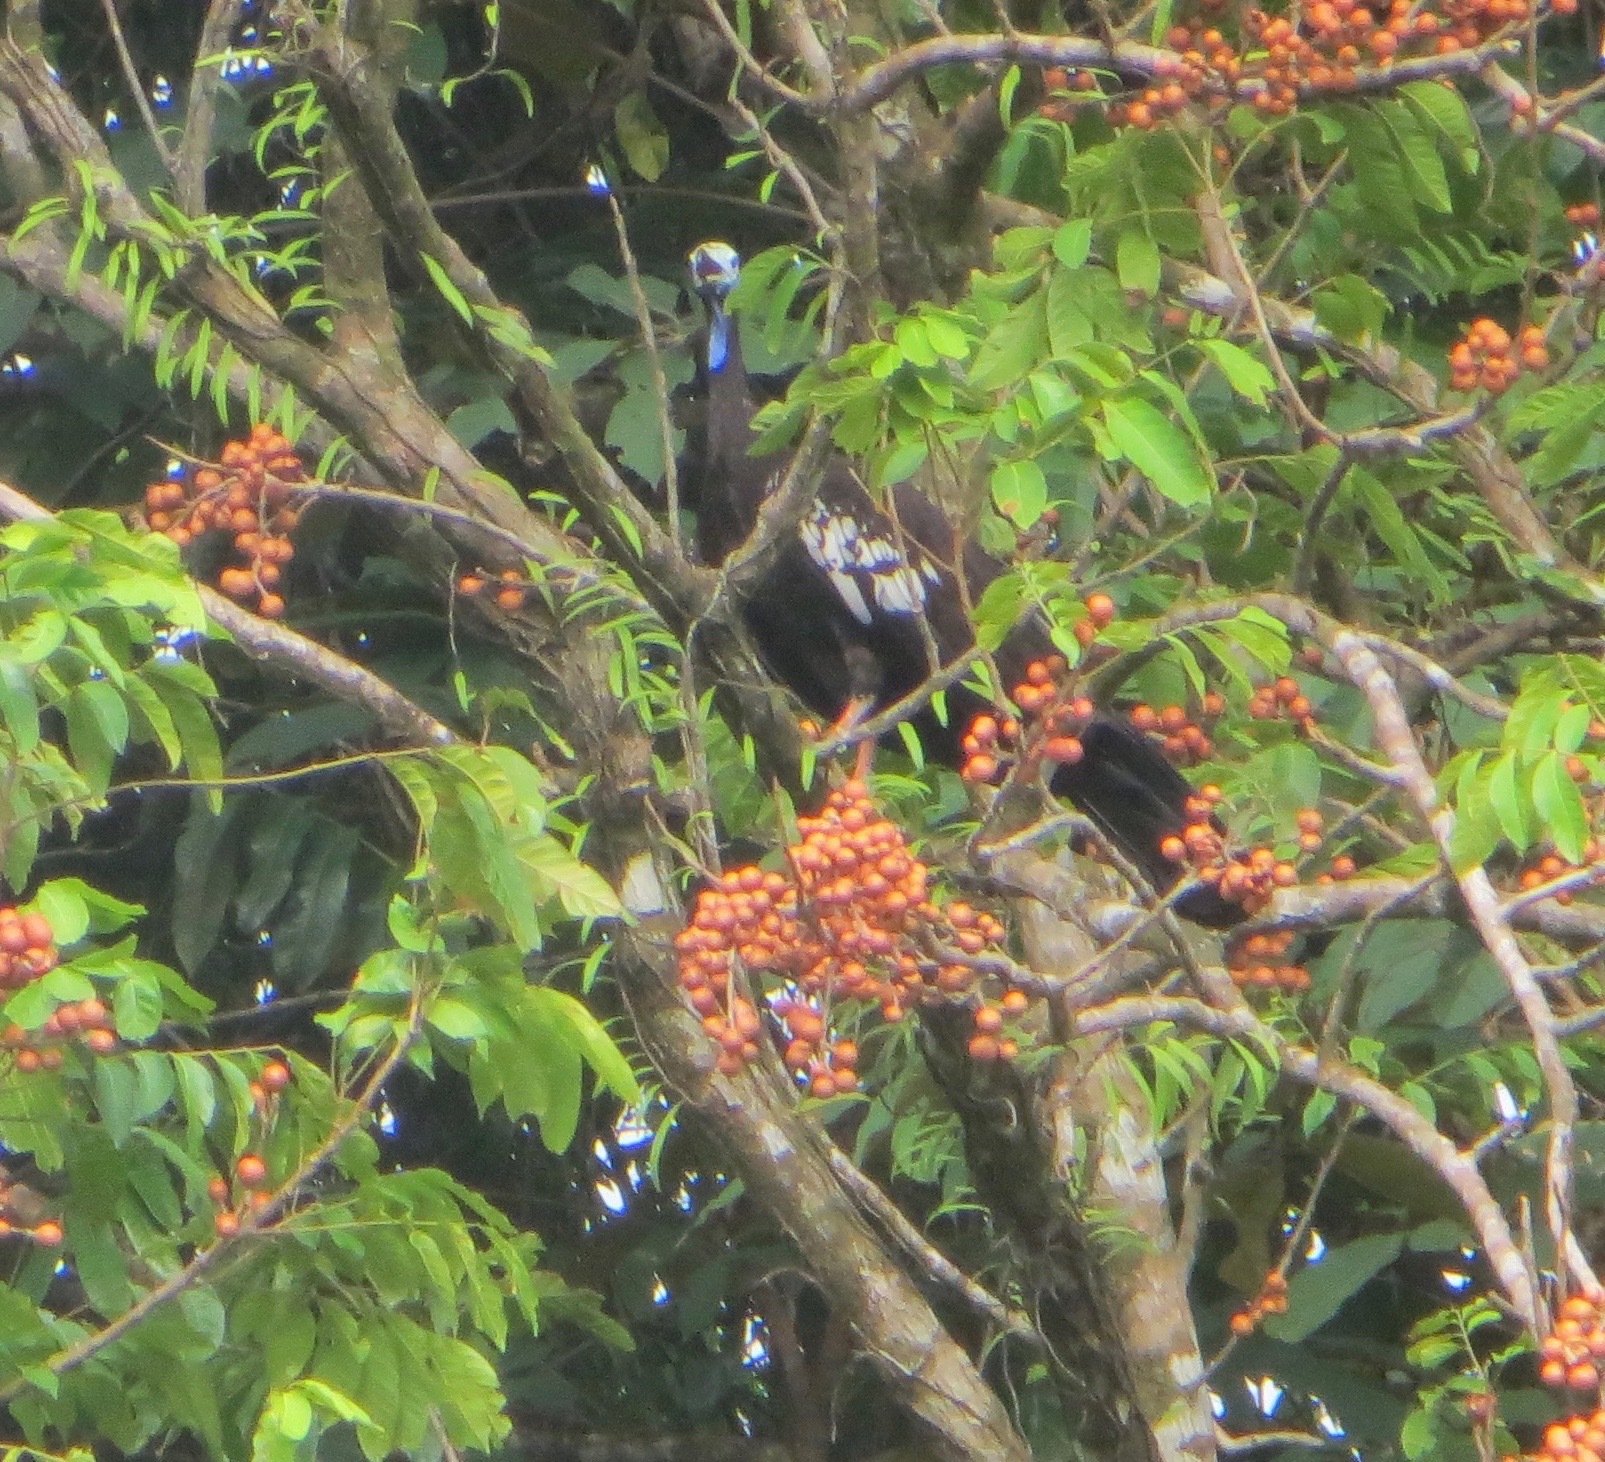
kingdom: Animalia
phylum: Chordata
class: Aves
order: Galliformes
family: Cracidae
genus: Pipile
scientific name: Pipile pipile
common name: Trinidad piping-guan
